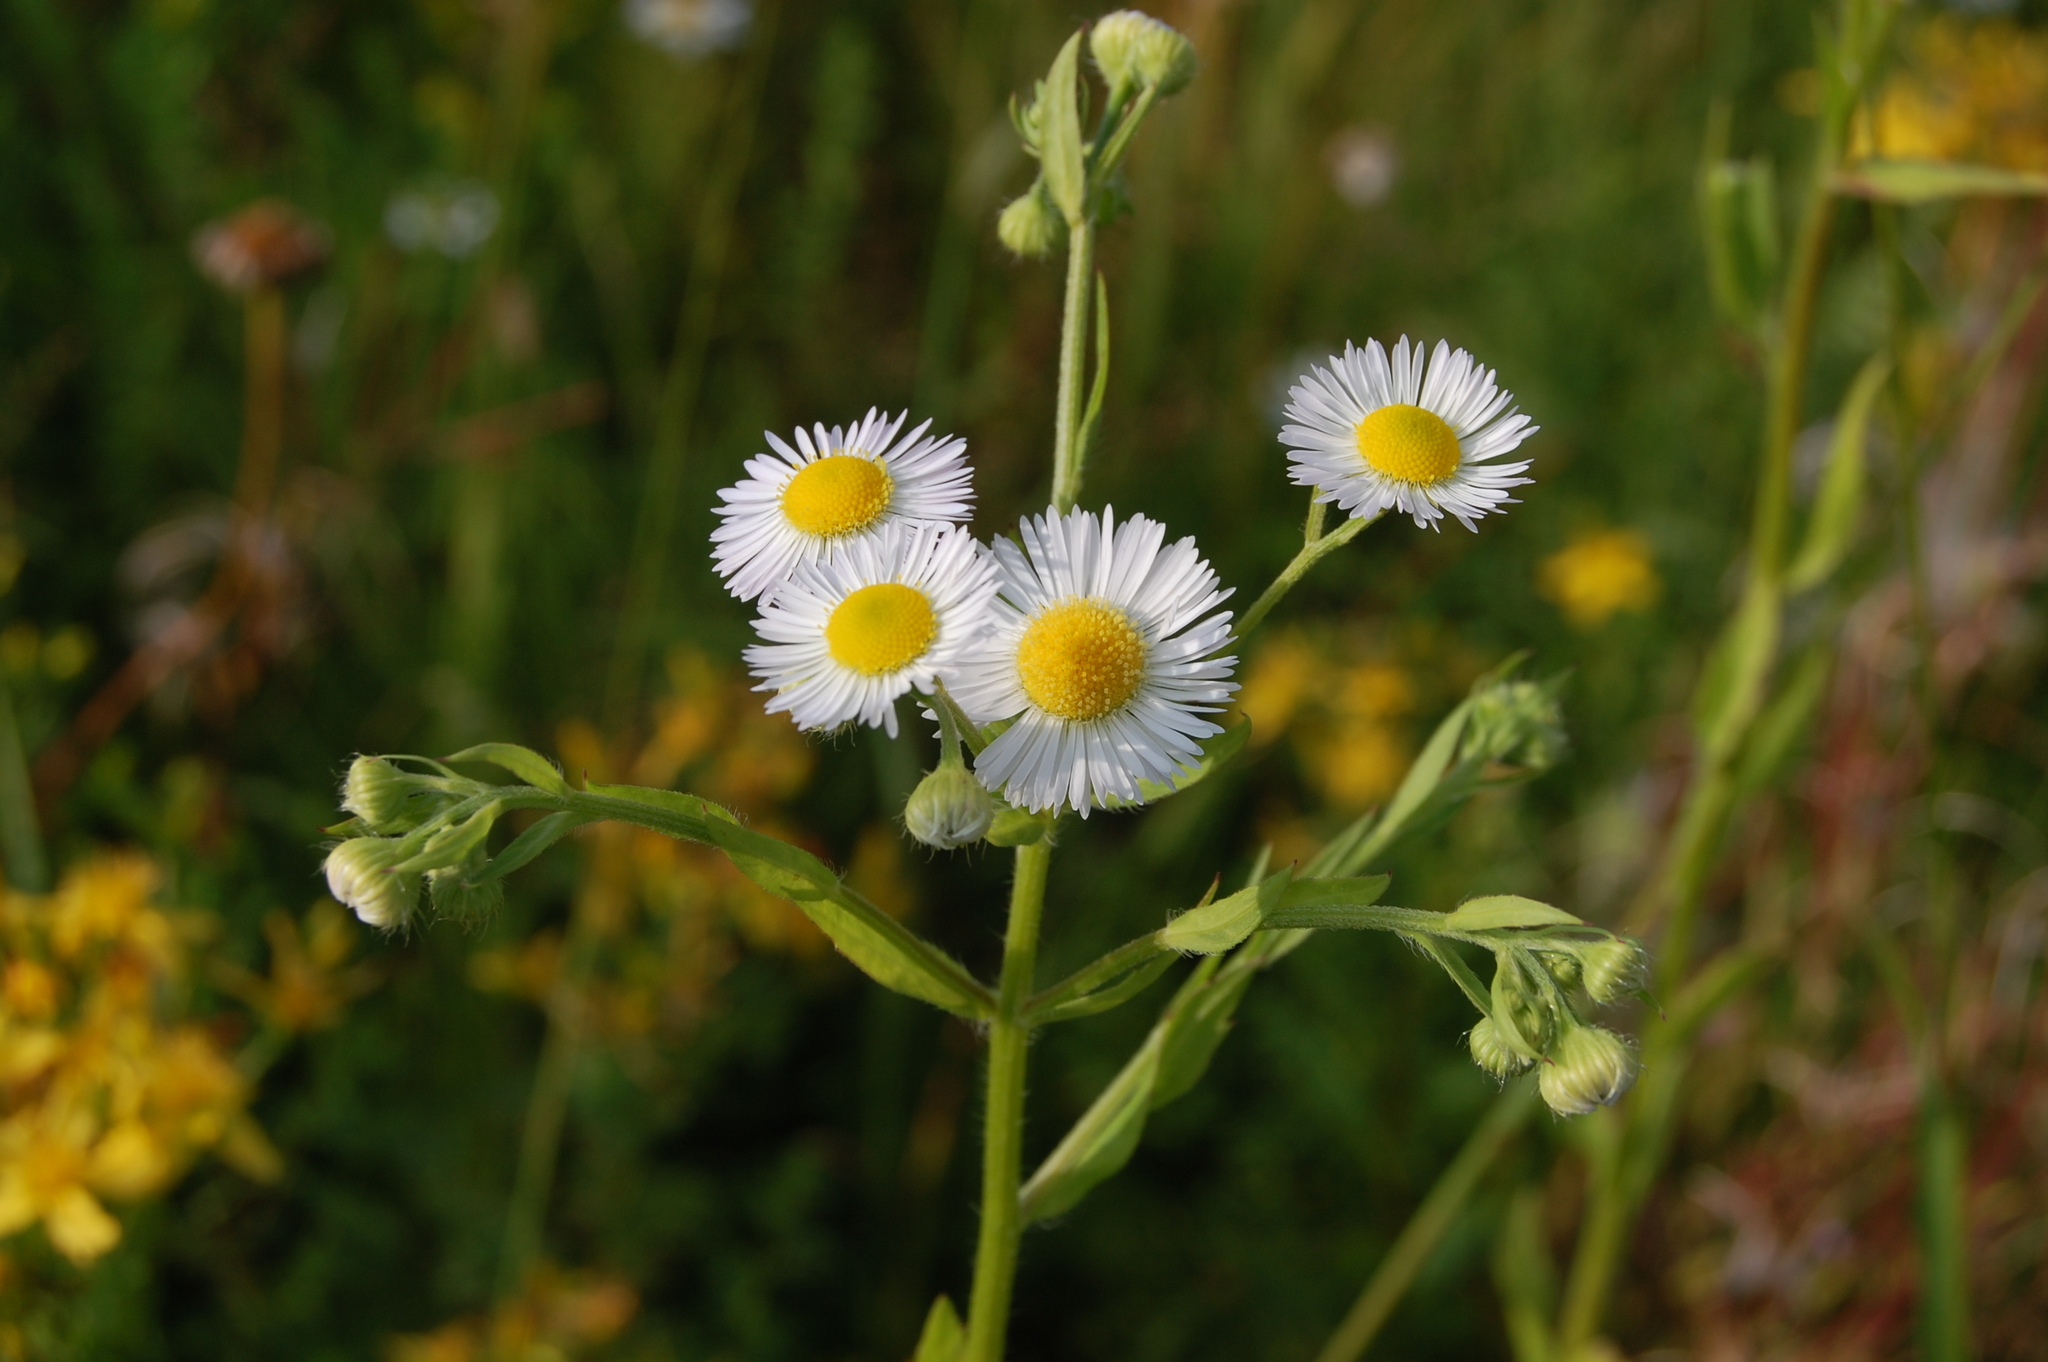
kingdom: Plantae
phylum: Tracheophyta
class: Magnoliopsida
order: Asterales
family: Asteraceae
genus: Erigeron
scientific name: Erigeron annuus
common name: Tall fleabane
